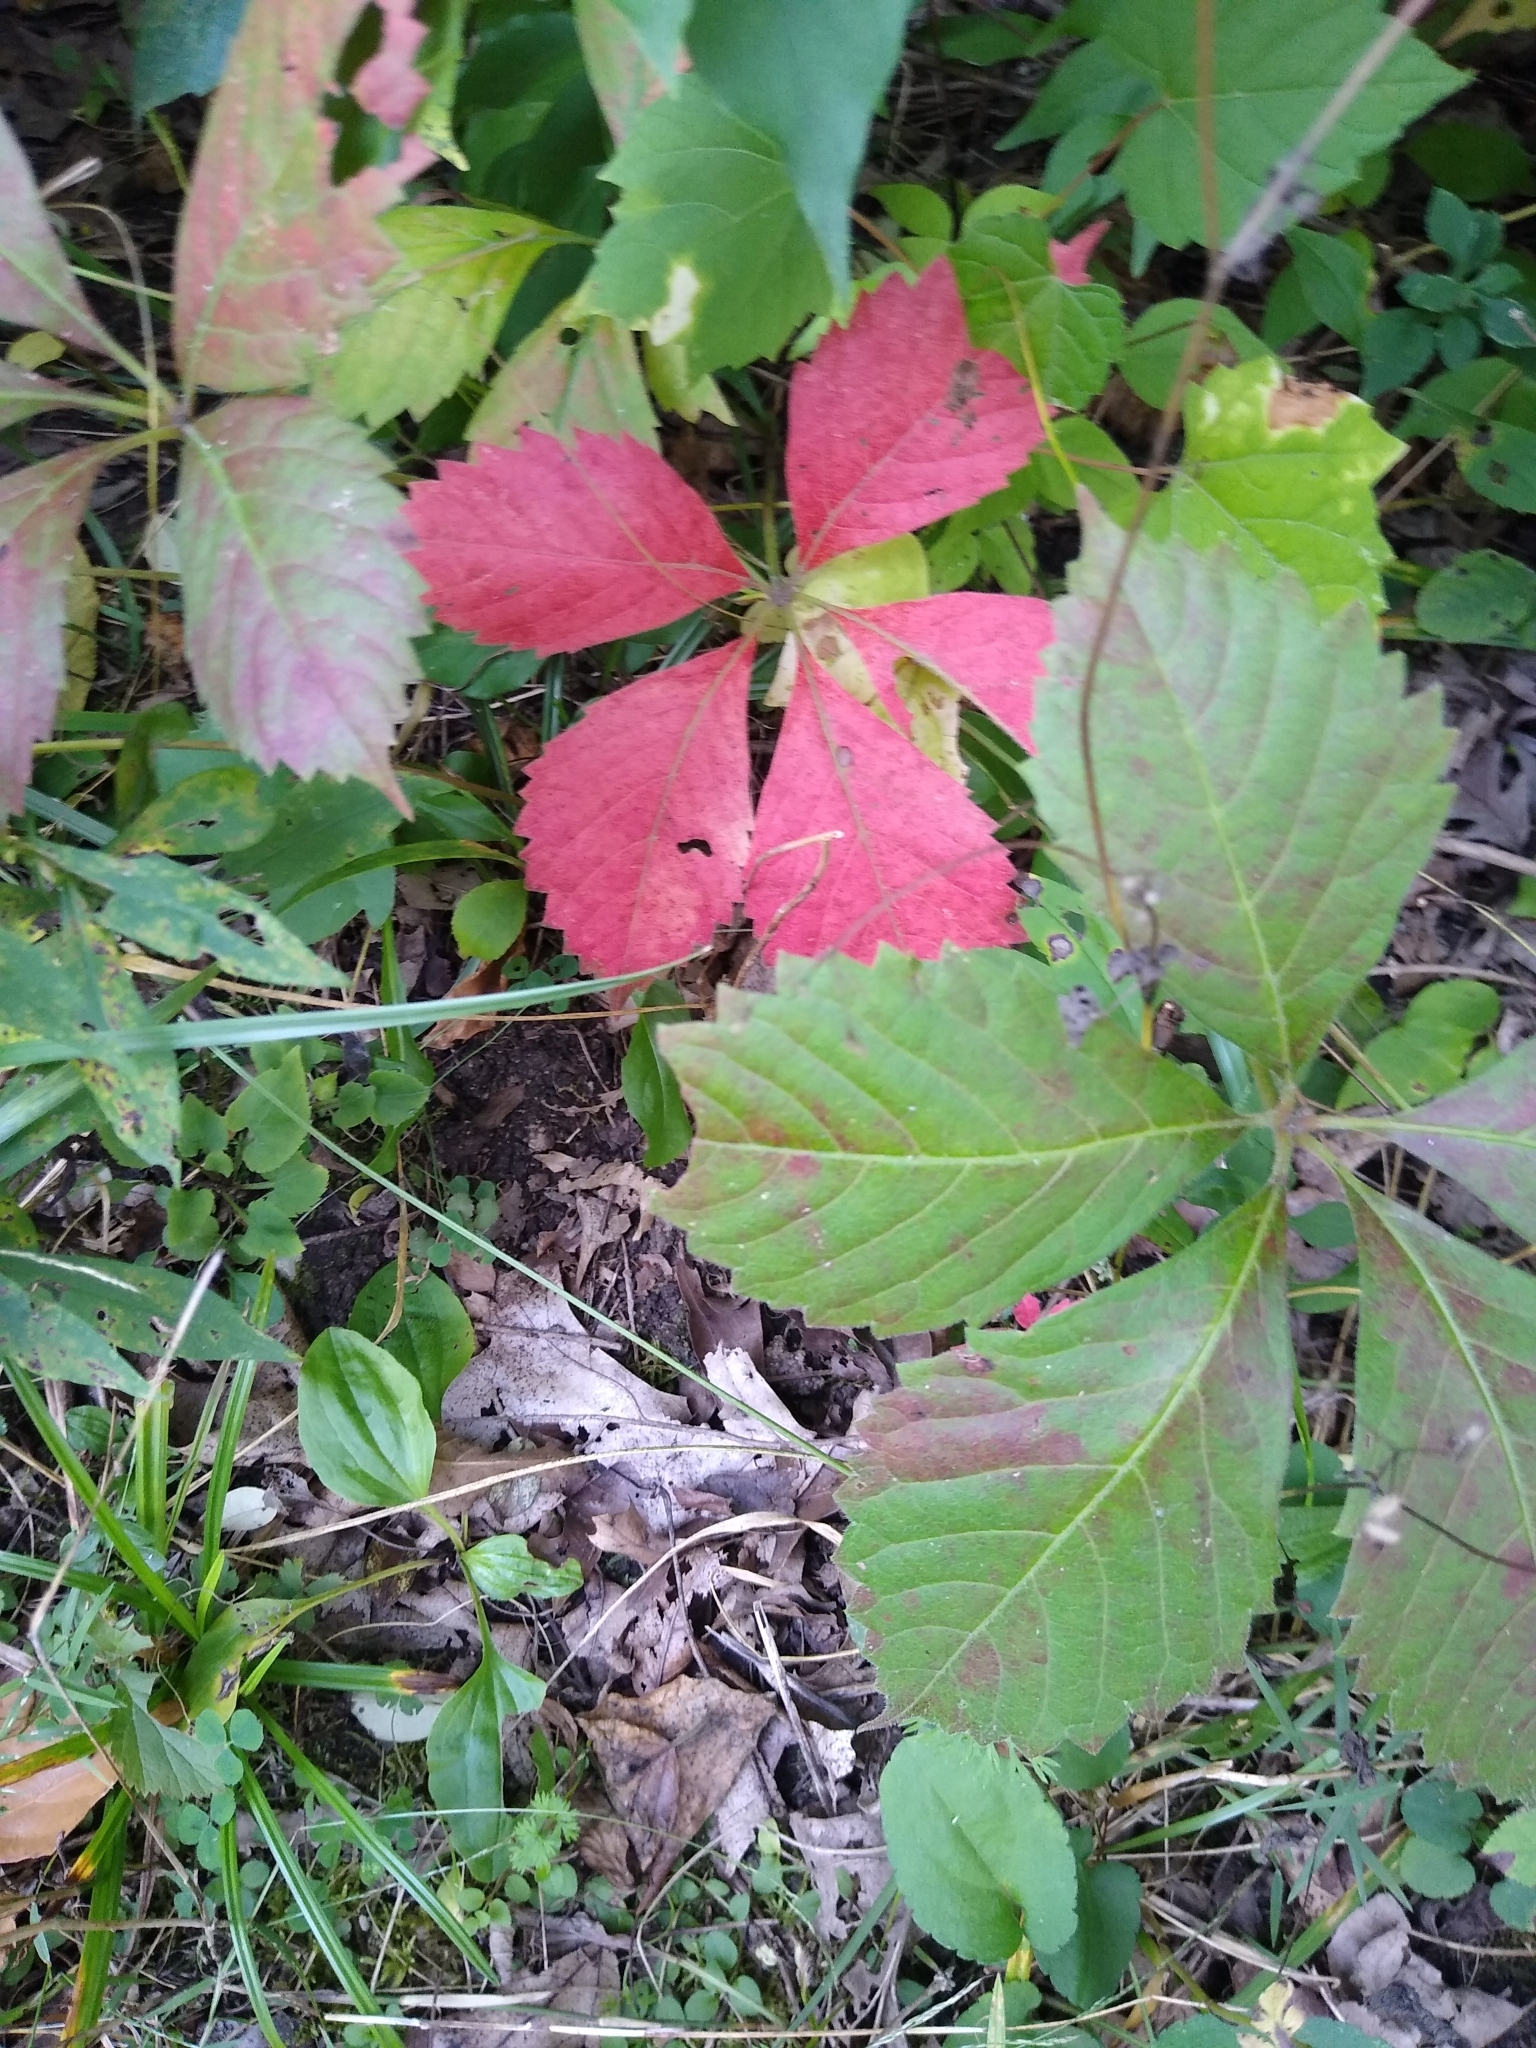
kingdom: Plantae
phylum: Tracheophyta
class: Magnoliopsida
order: Vitales
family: Vitaceae
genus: Parthenocissus
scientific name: Parthenocissus quinquefolia
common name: Virginia-creeper
